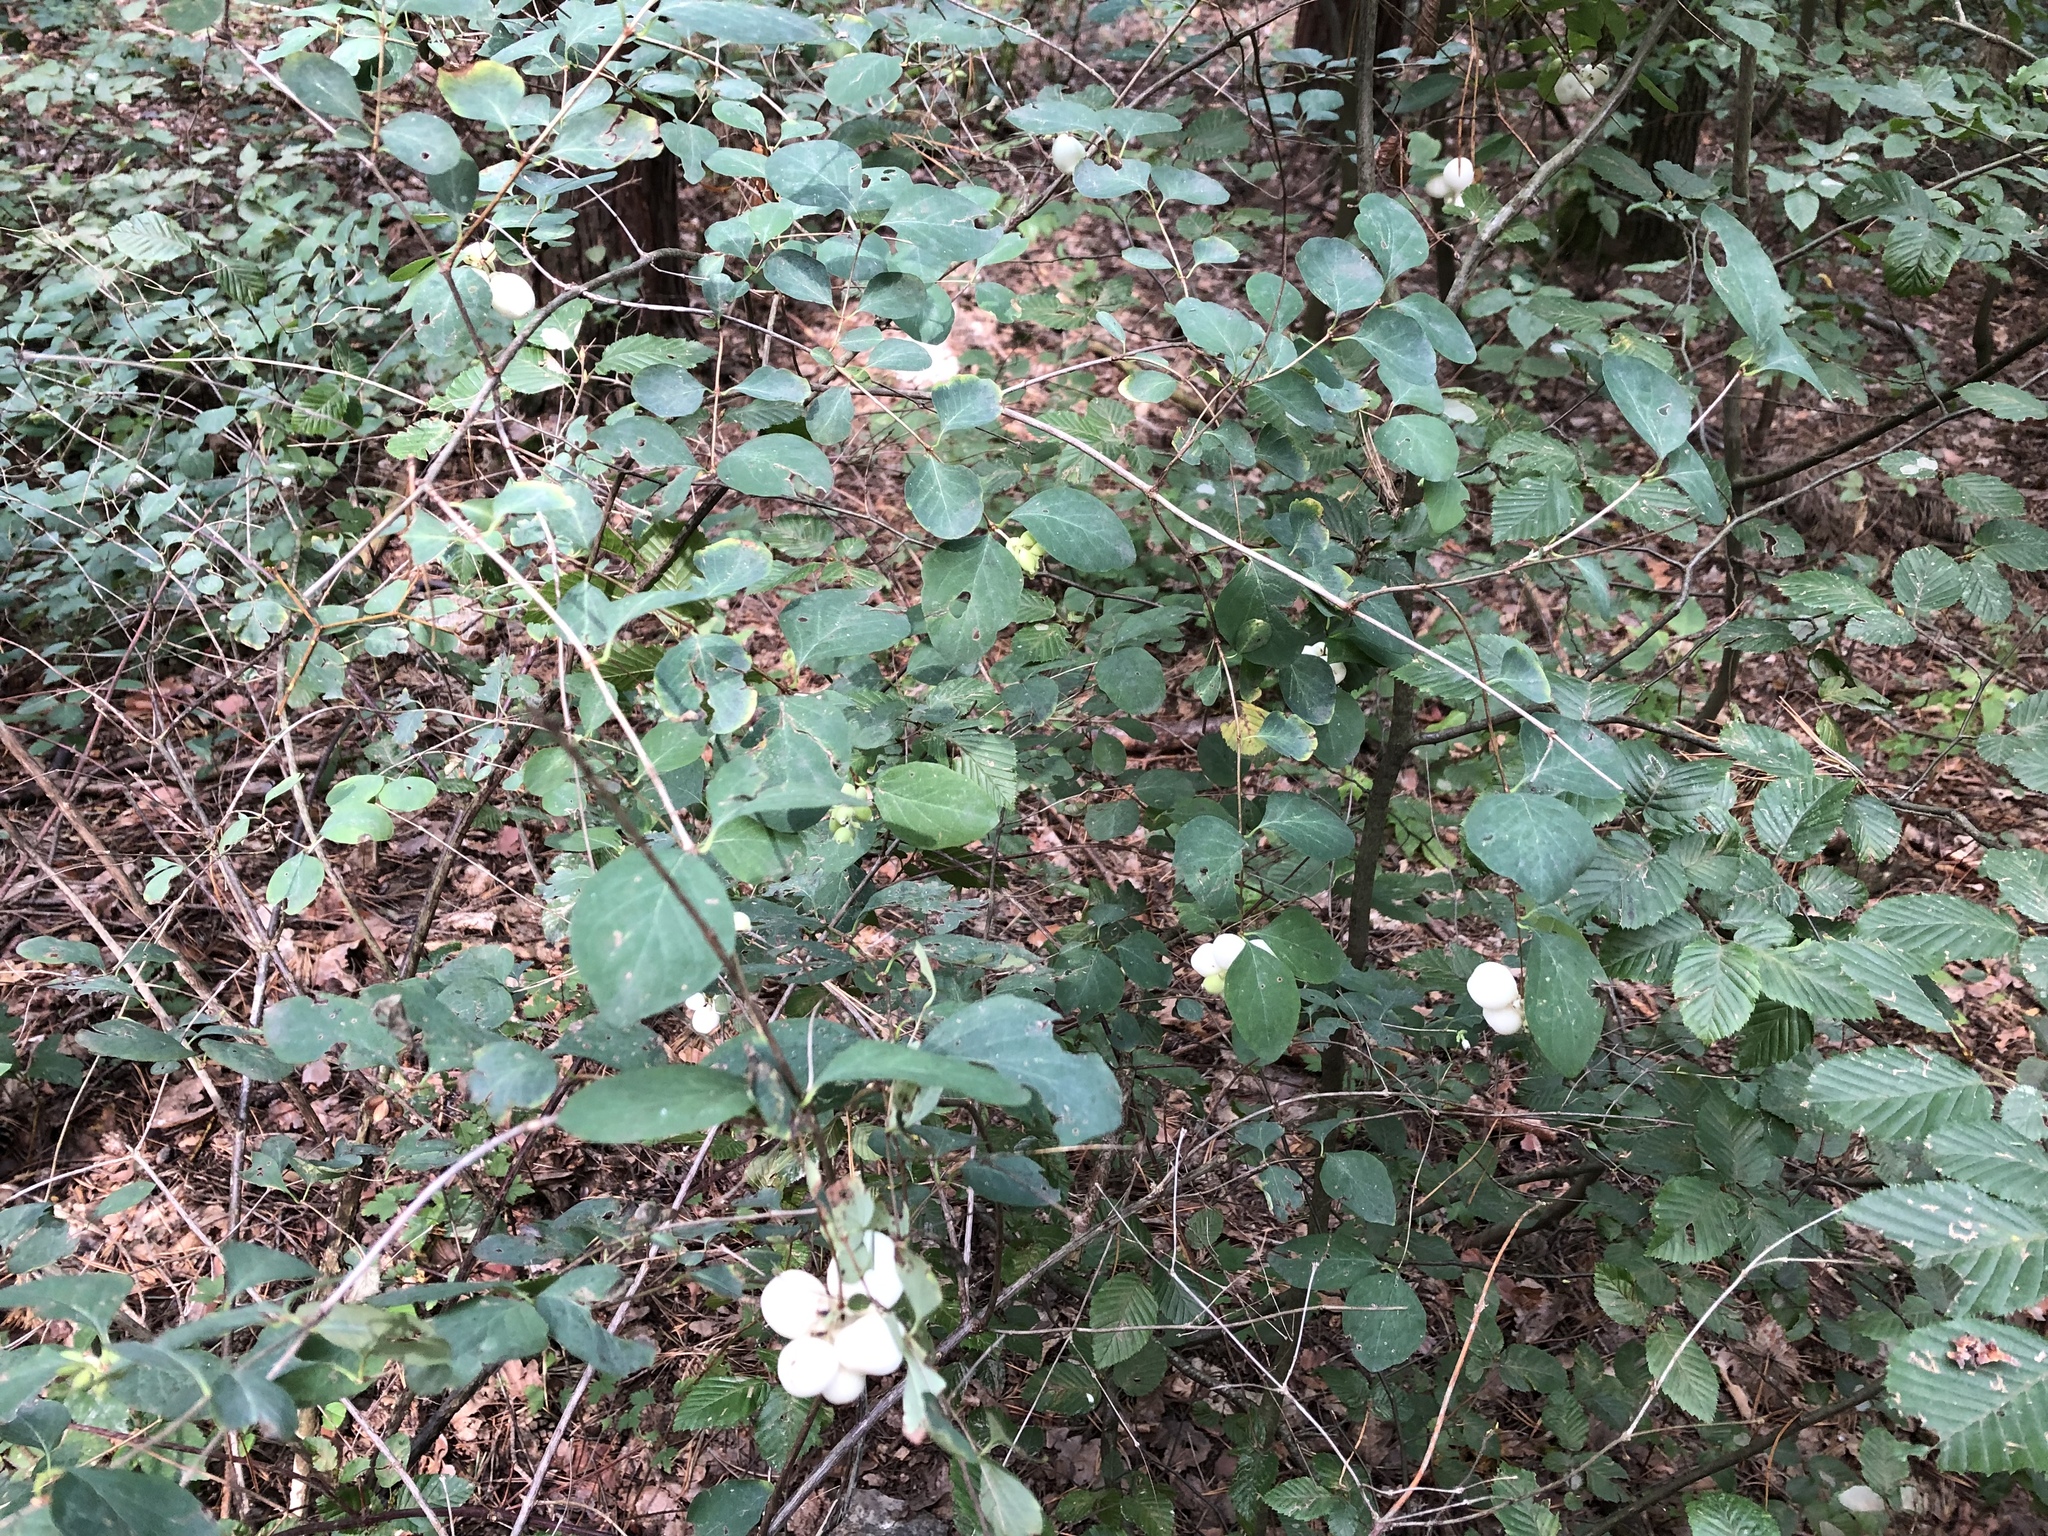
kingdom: Plantae
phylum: Tracheophyta
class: Magnoliopsida
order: Dipsacales
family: Caprifoliaceae
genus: Symphoricarpos
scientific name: Symphoricarpos albus
